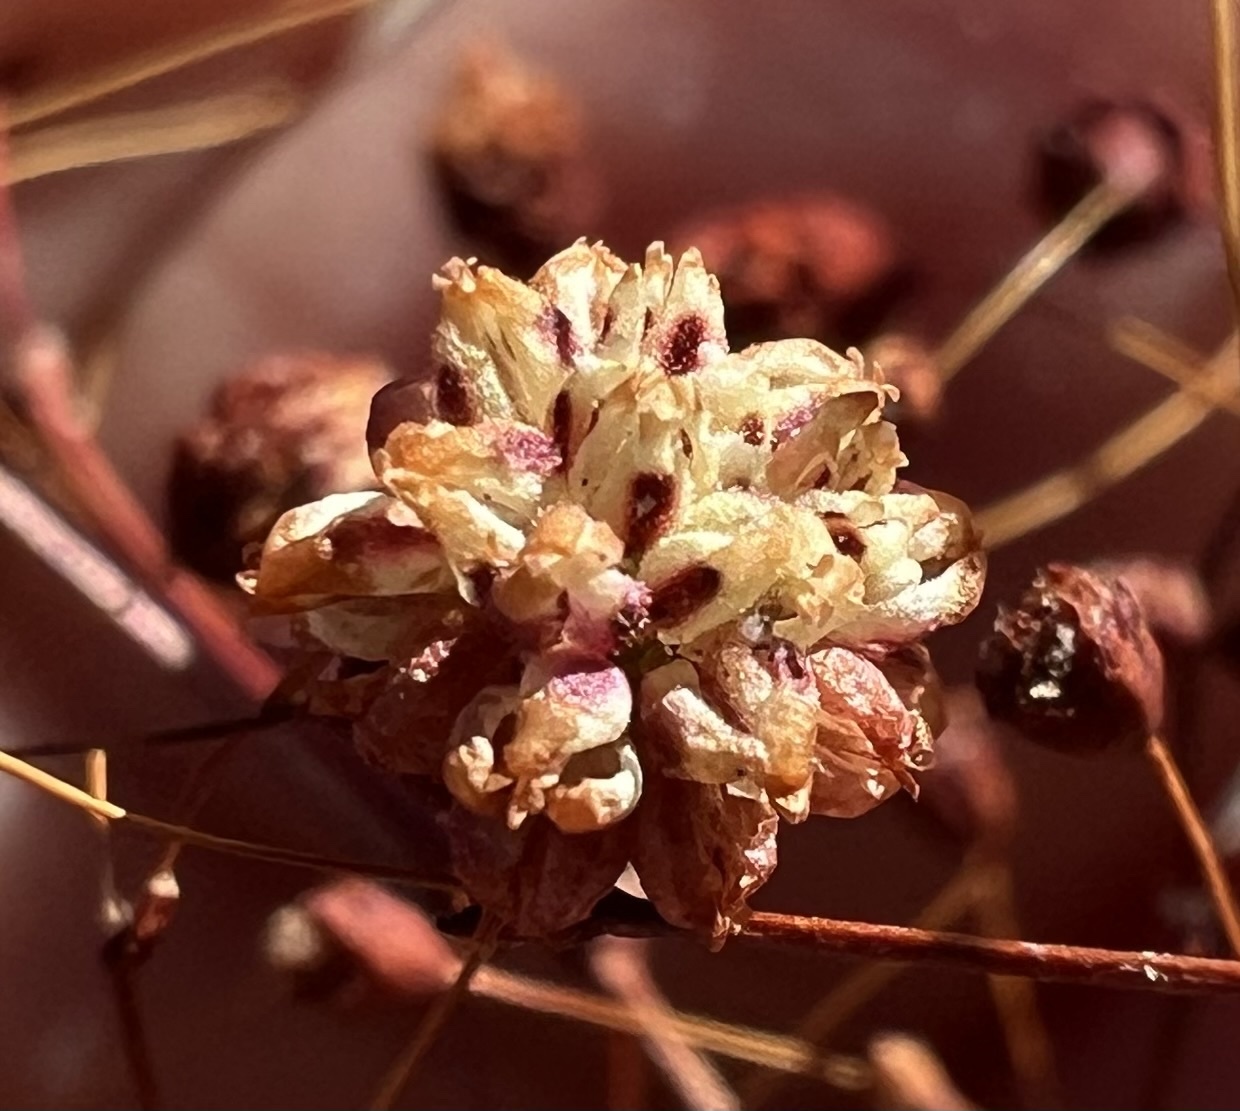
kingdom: Plantae
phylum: Tracheophyta
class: Magnoliopsida
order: Caryophyllales
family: Polygonaceae
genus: Eriogonum
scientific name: Eriogonum maculatum
